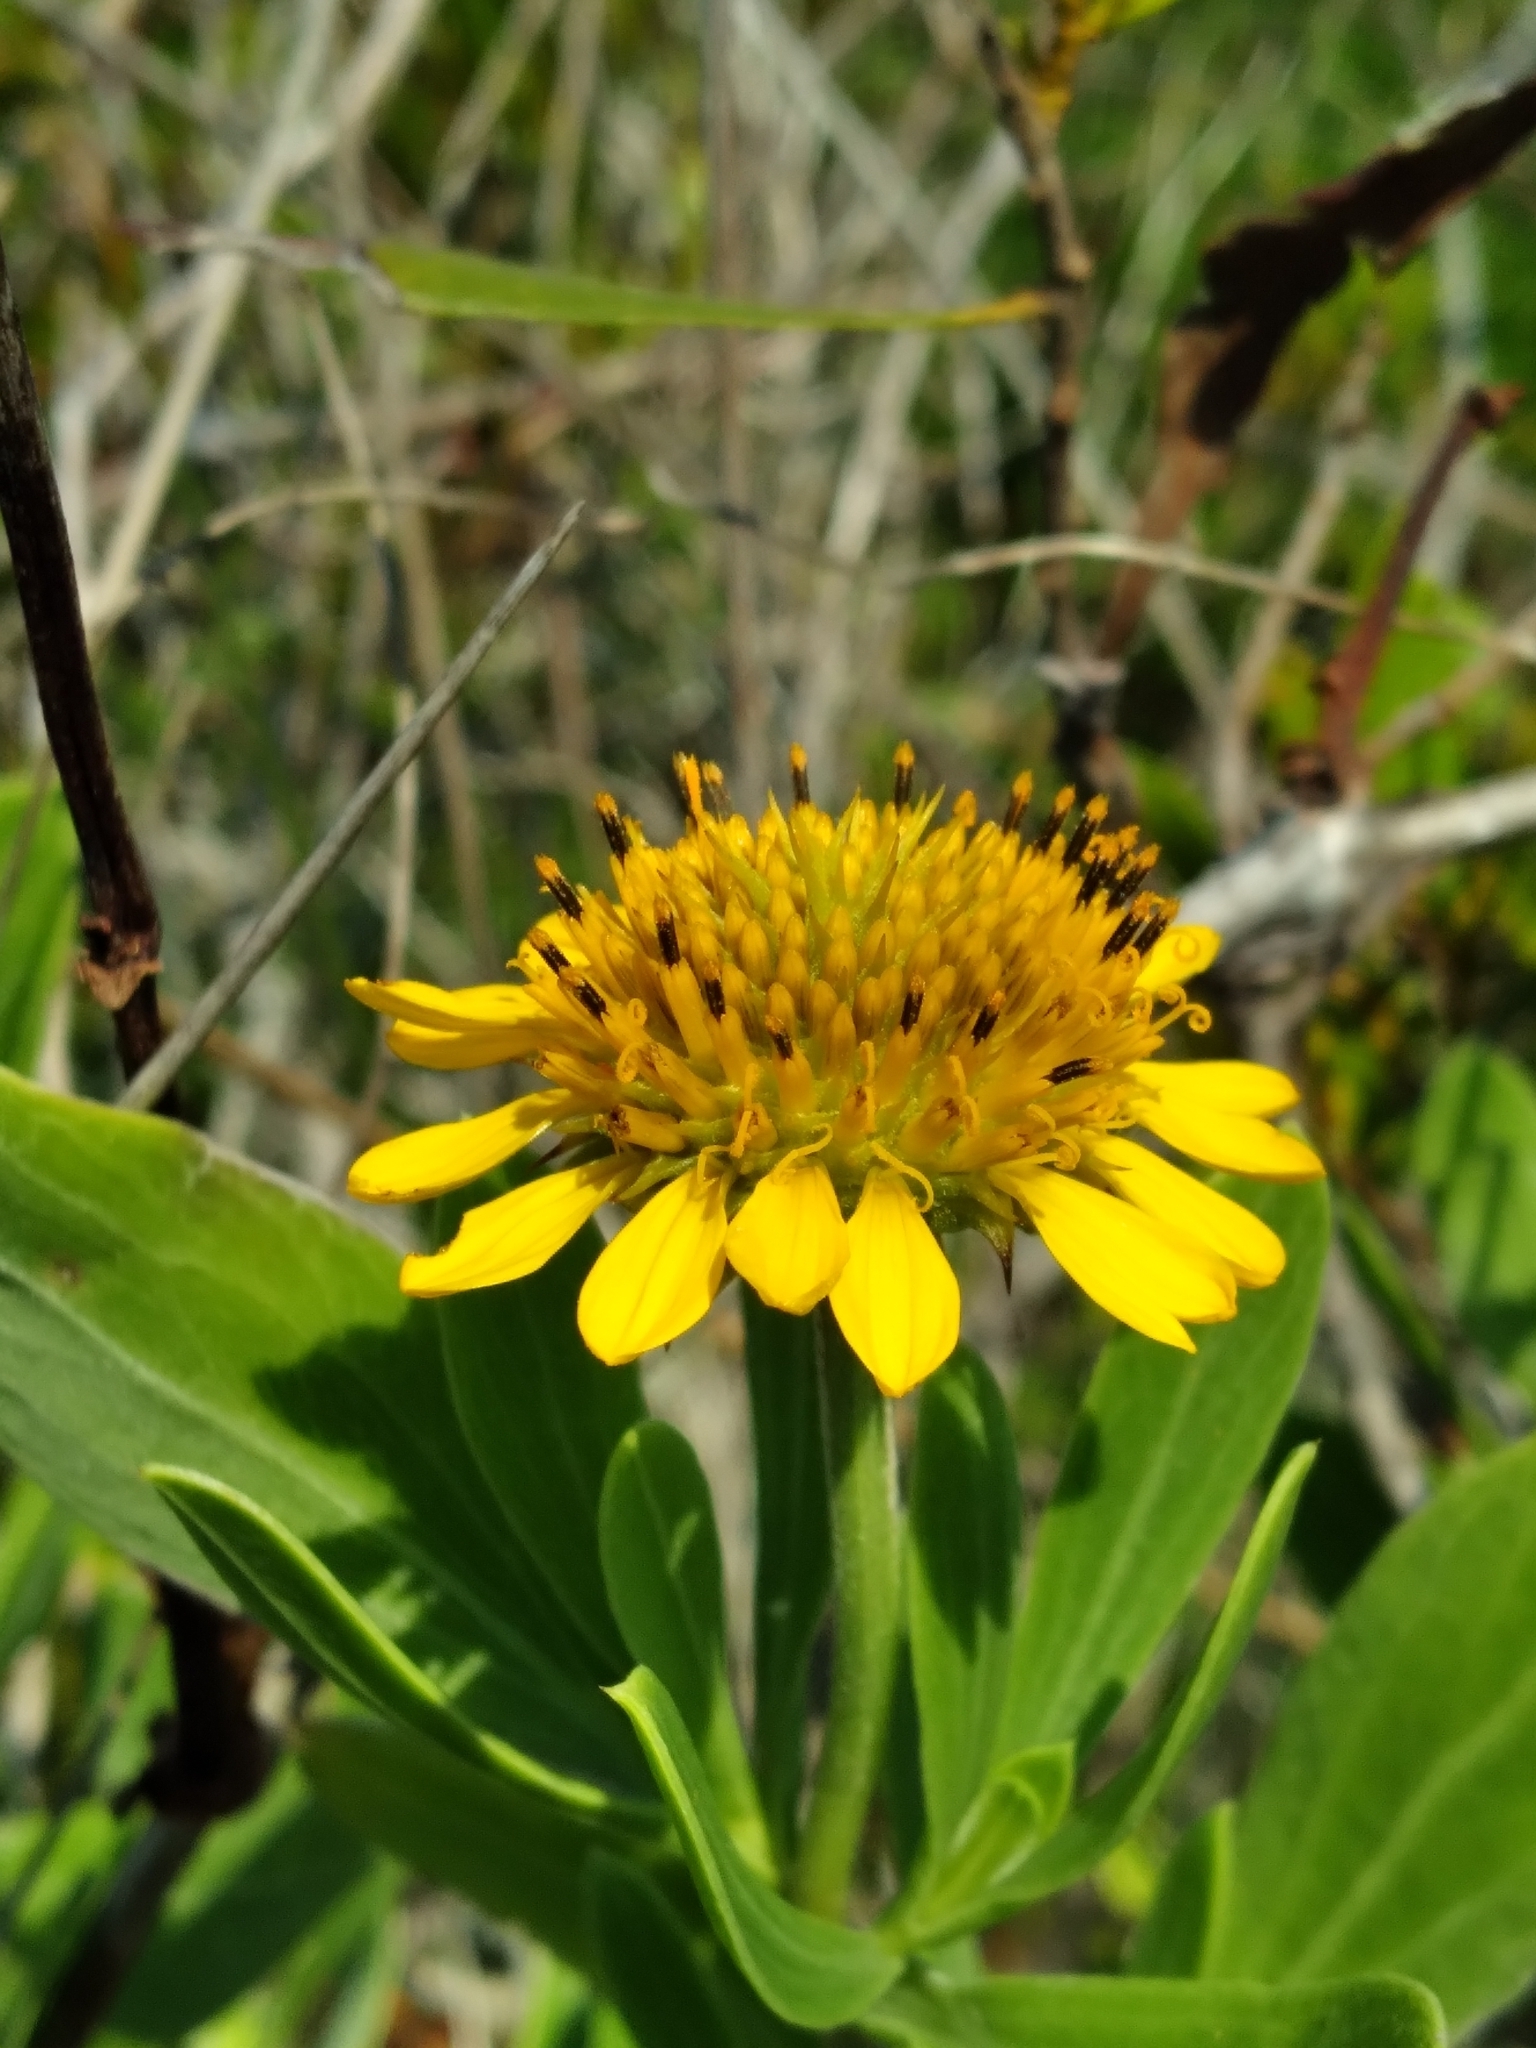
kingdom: Plantae
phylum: Tracheophyta
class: Magnoliopsida
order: Asterales
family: Asteraceae
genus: Borrichia
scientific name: Borrichia frutescens
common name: Sea oxeye
